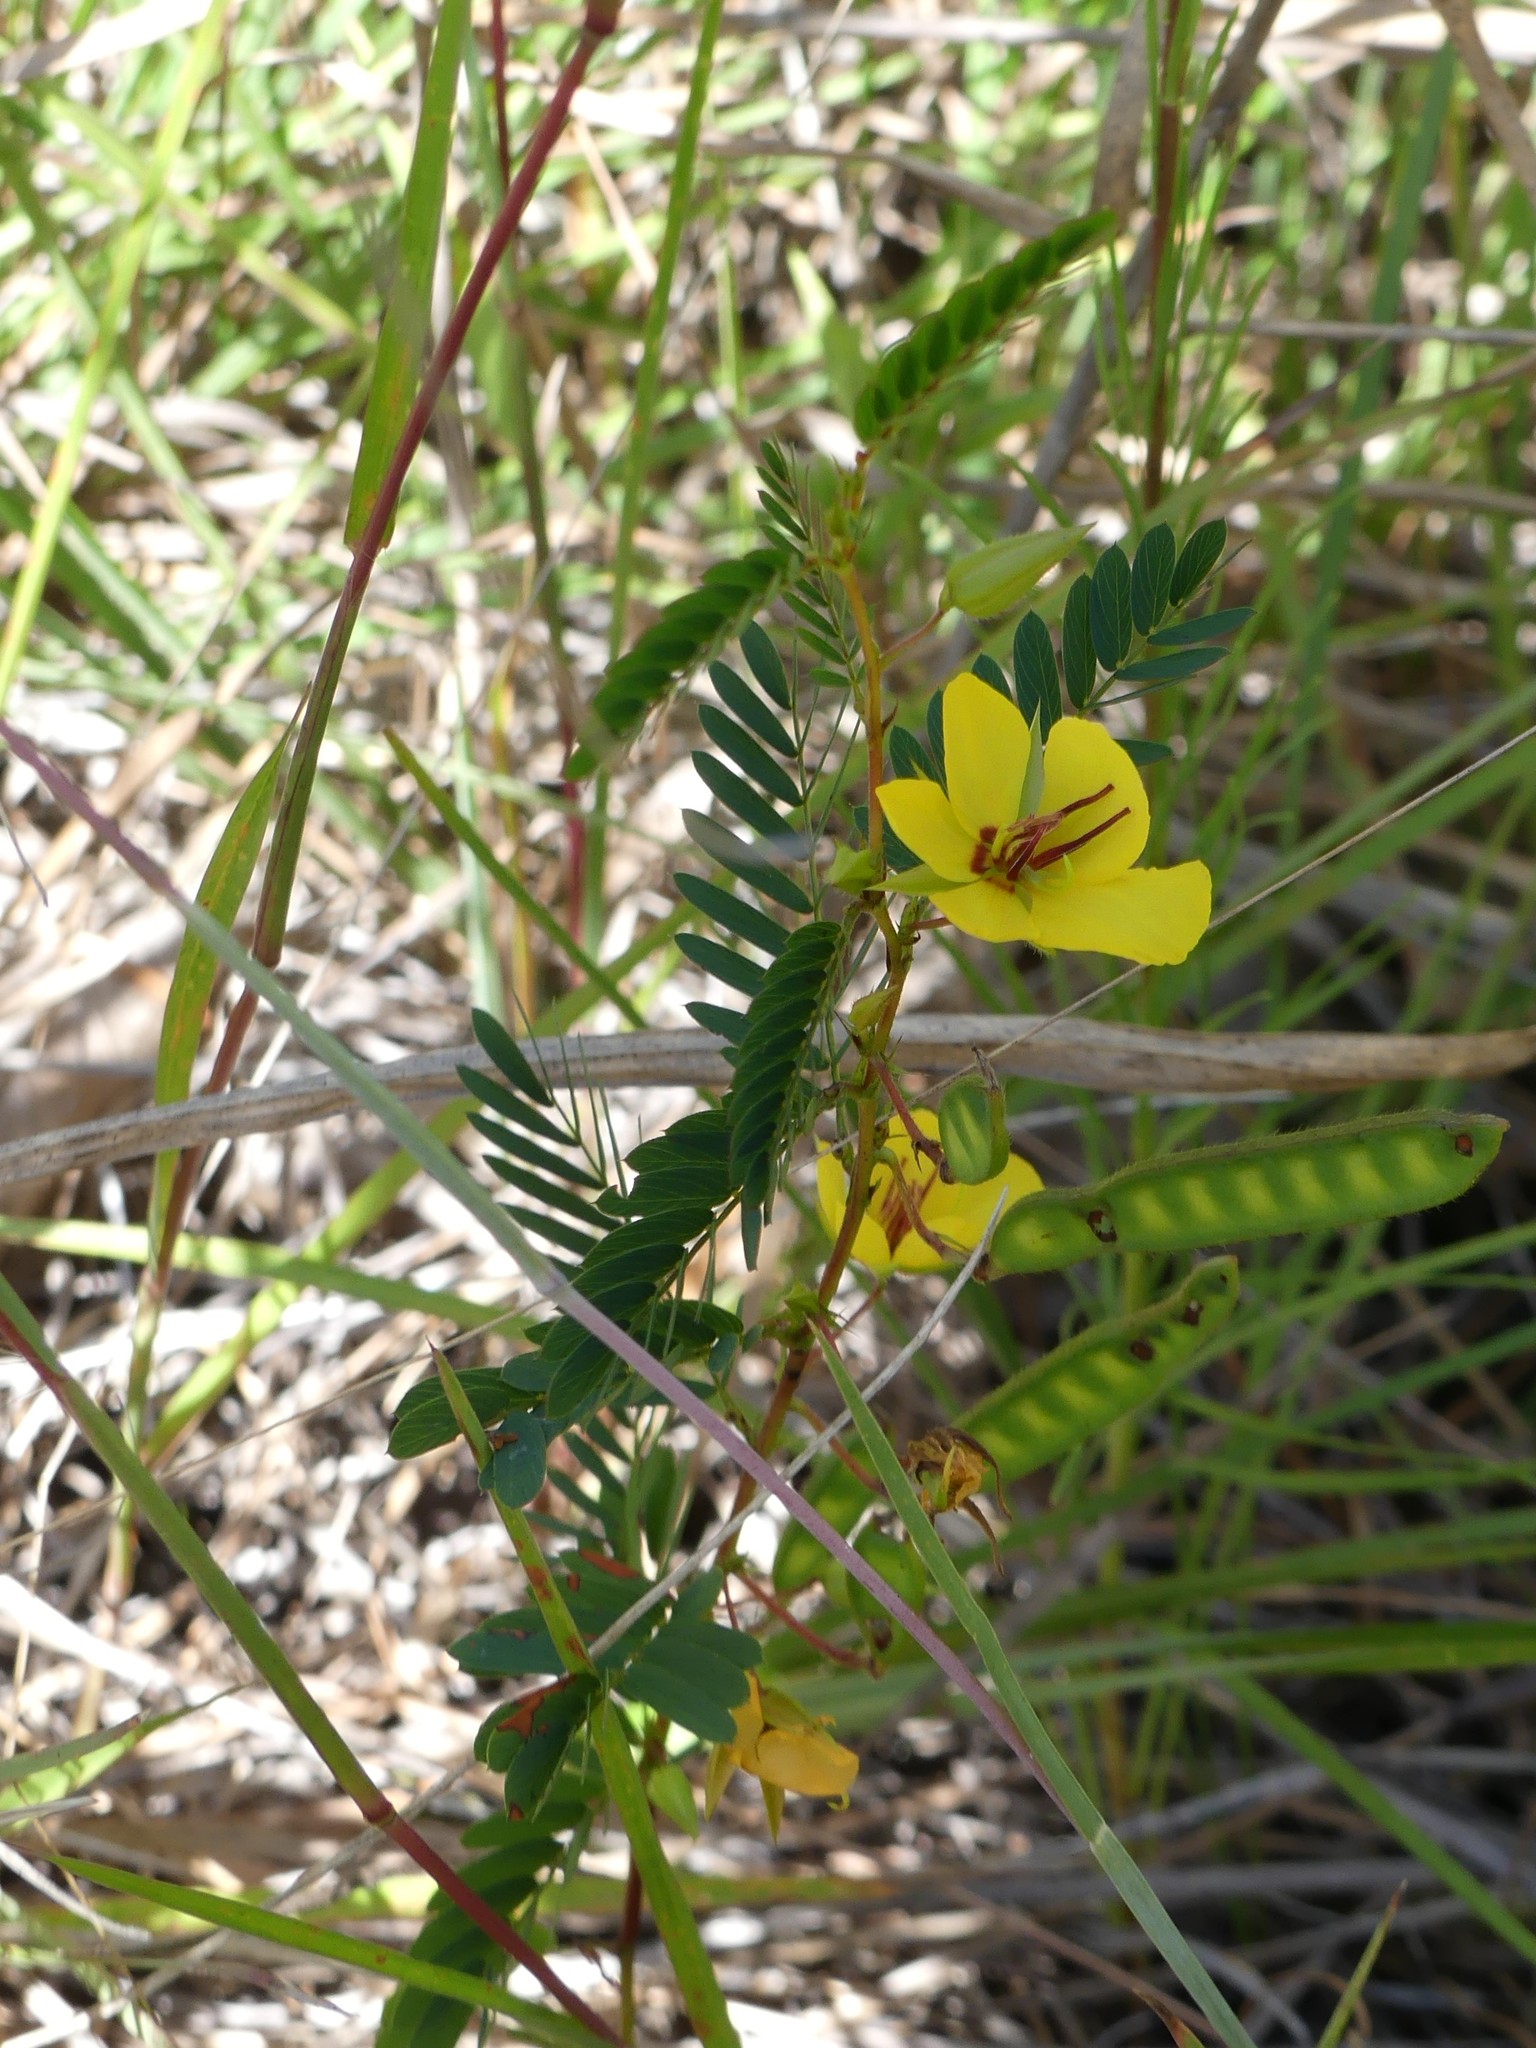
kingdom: Plantae
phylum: Tracheophyta
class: Magnoliopsida
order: Fabales
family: Fabaceae
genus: Chamaecrista
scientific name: Chamaecrista fasciculata
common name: Golden cassia
